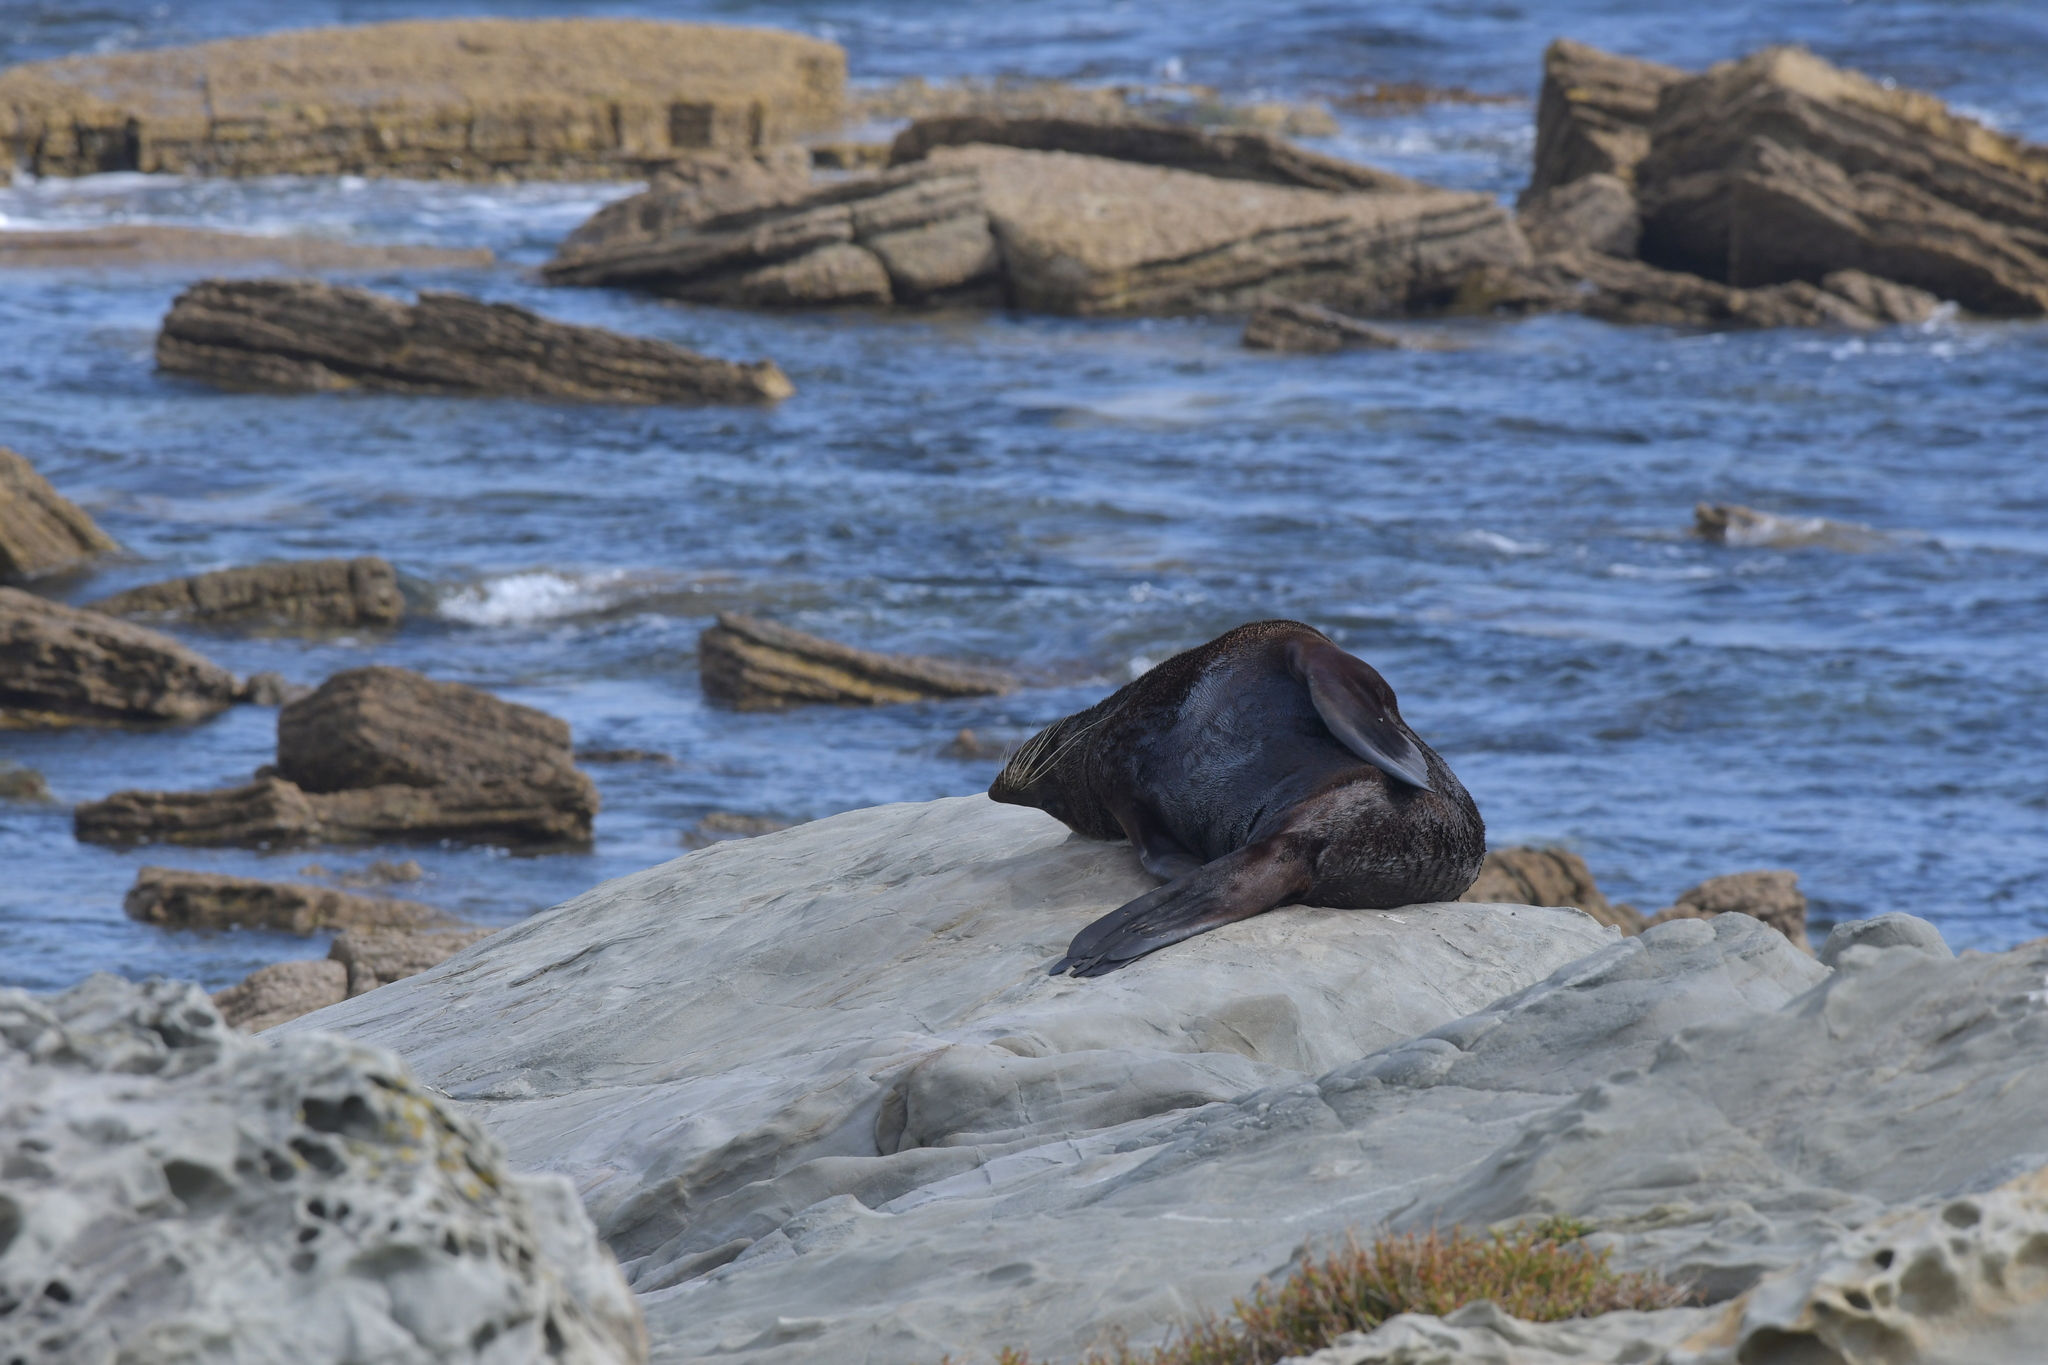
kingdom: Animalia
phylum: Chordata
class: Mammalia
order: Carnivora
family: Otariidae
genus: Arctocephalus
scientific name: Arctocephalus forsteri
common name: New zealand fur seal
